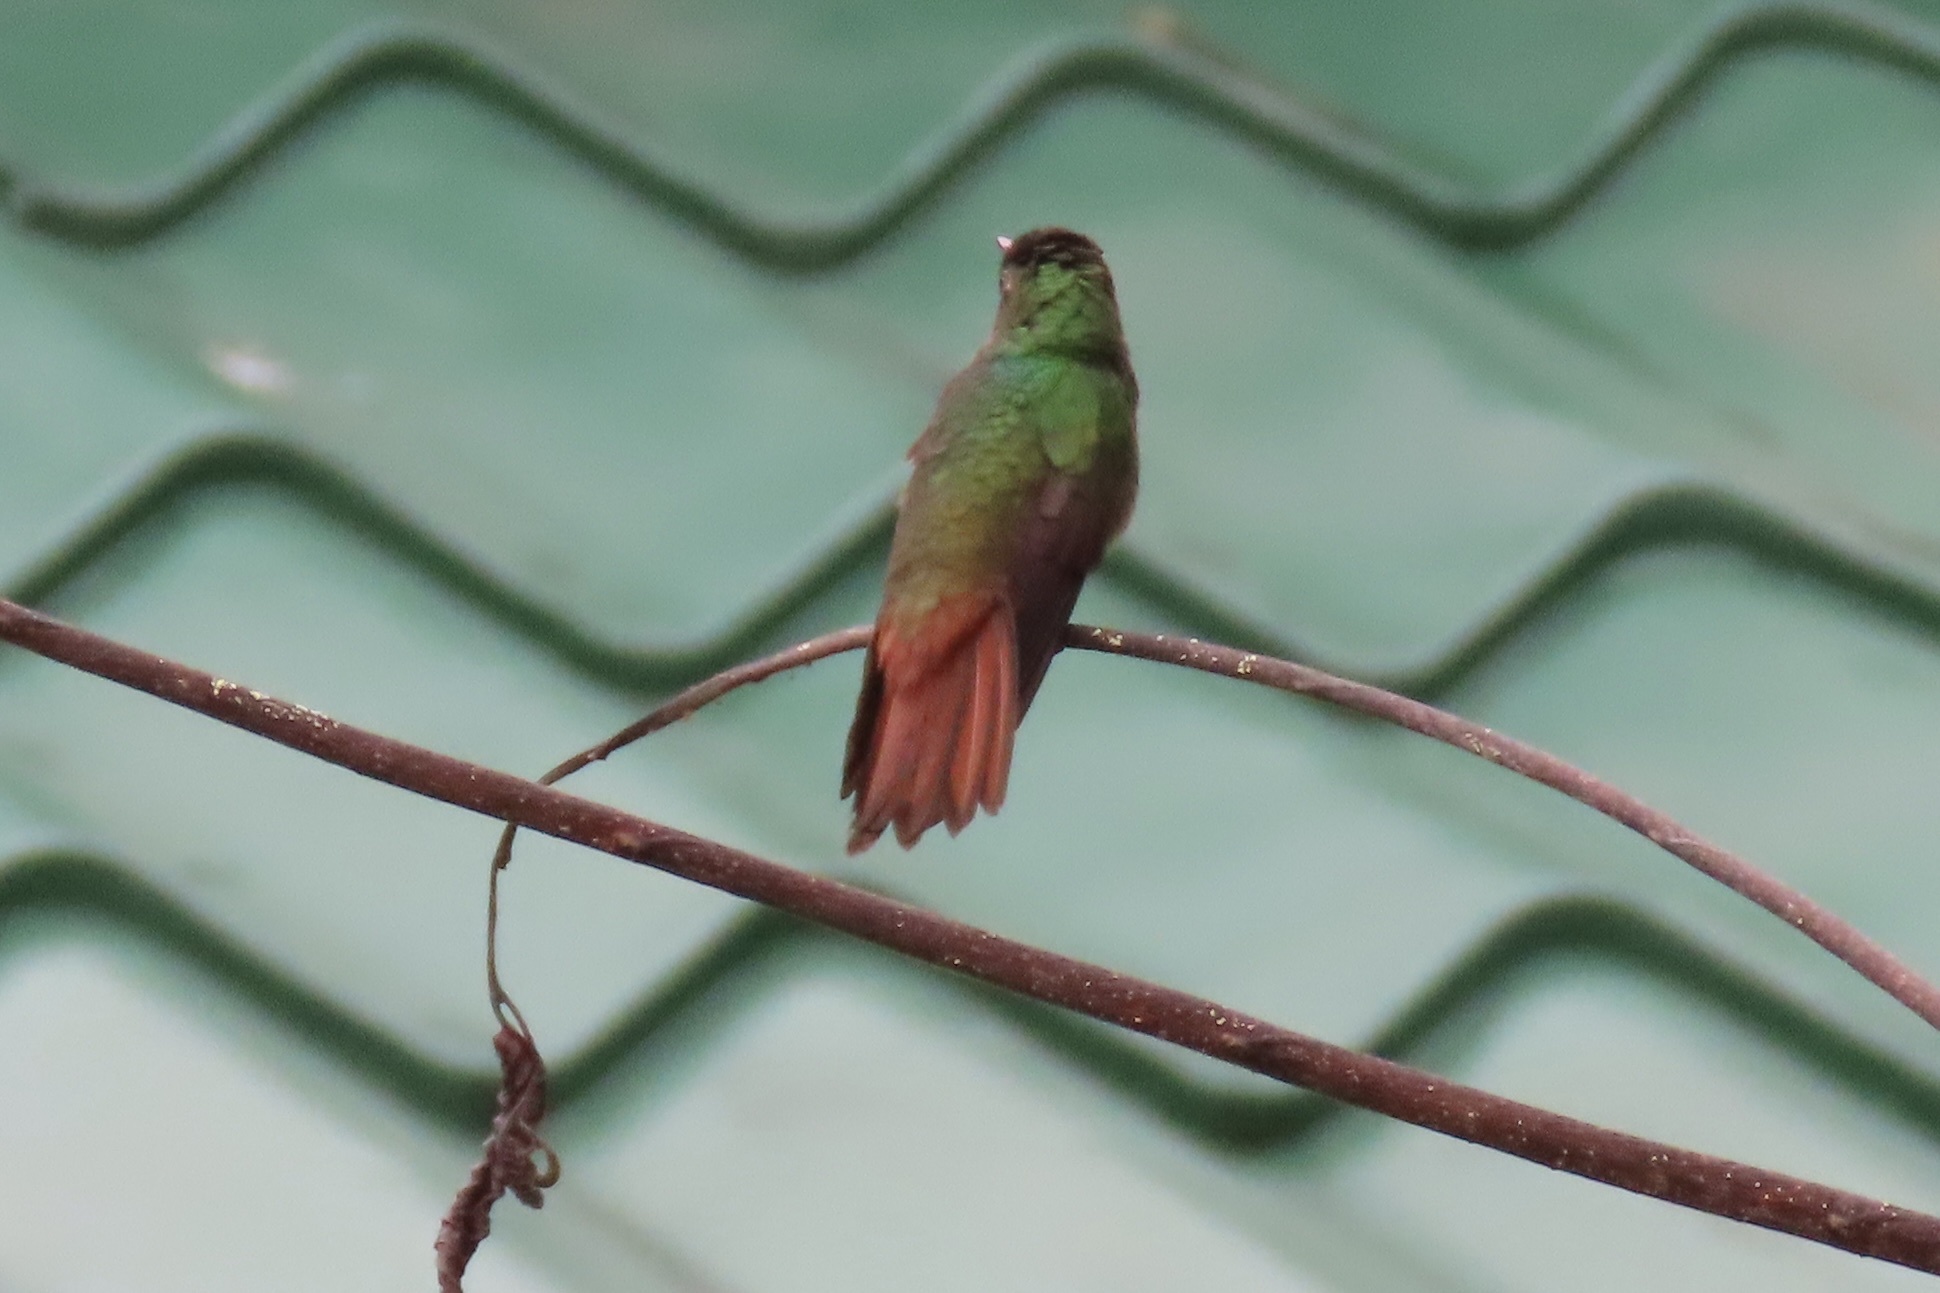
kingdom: Animalia
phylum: Chordata
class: Aves
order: Apodiformes
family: Trochilidae
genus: Amazilia
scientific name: Amazilia tzacatl
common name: Rufous-tailed hummingbird
